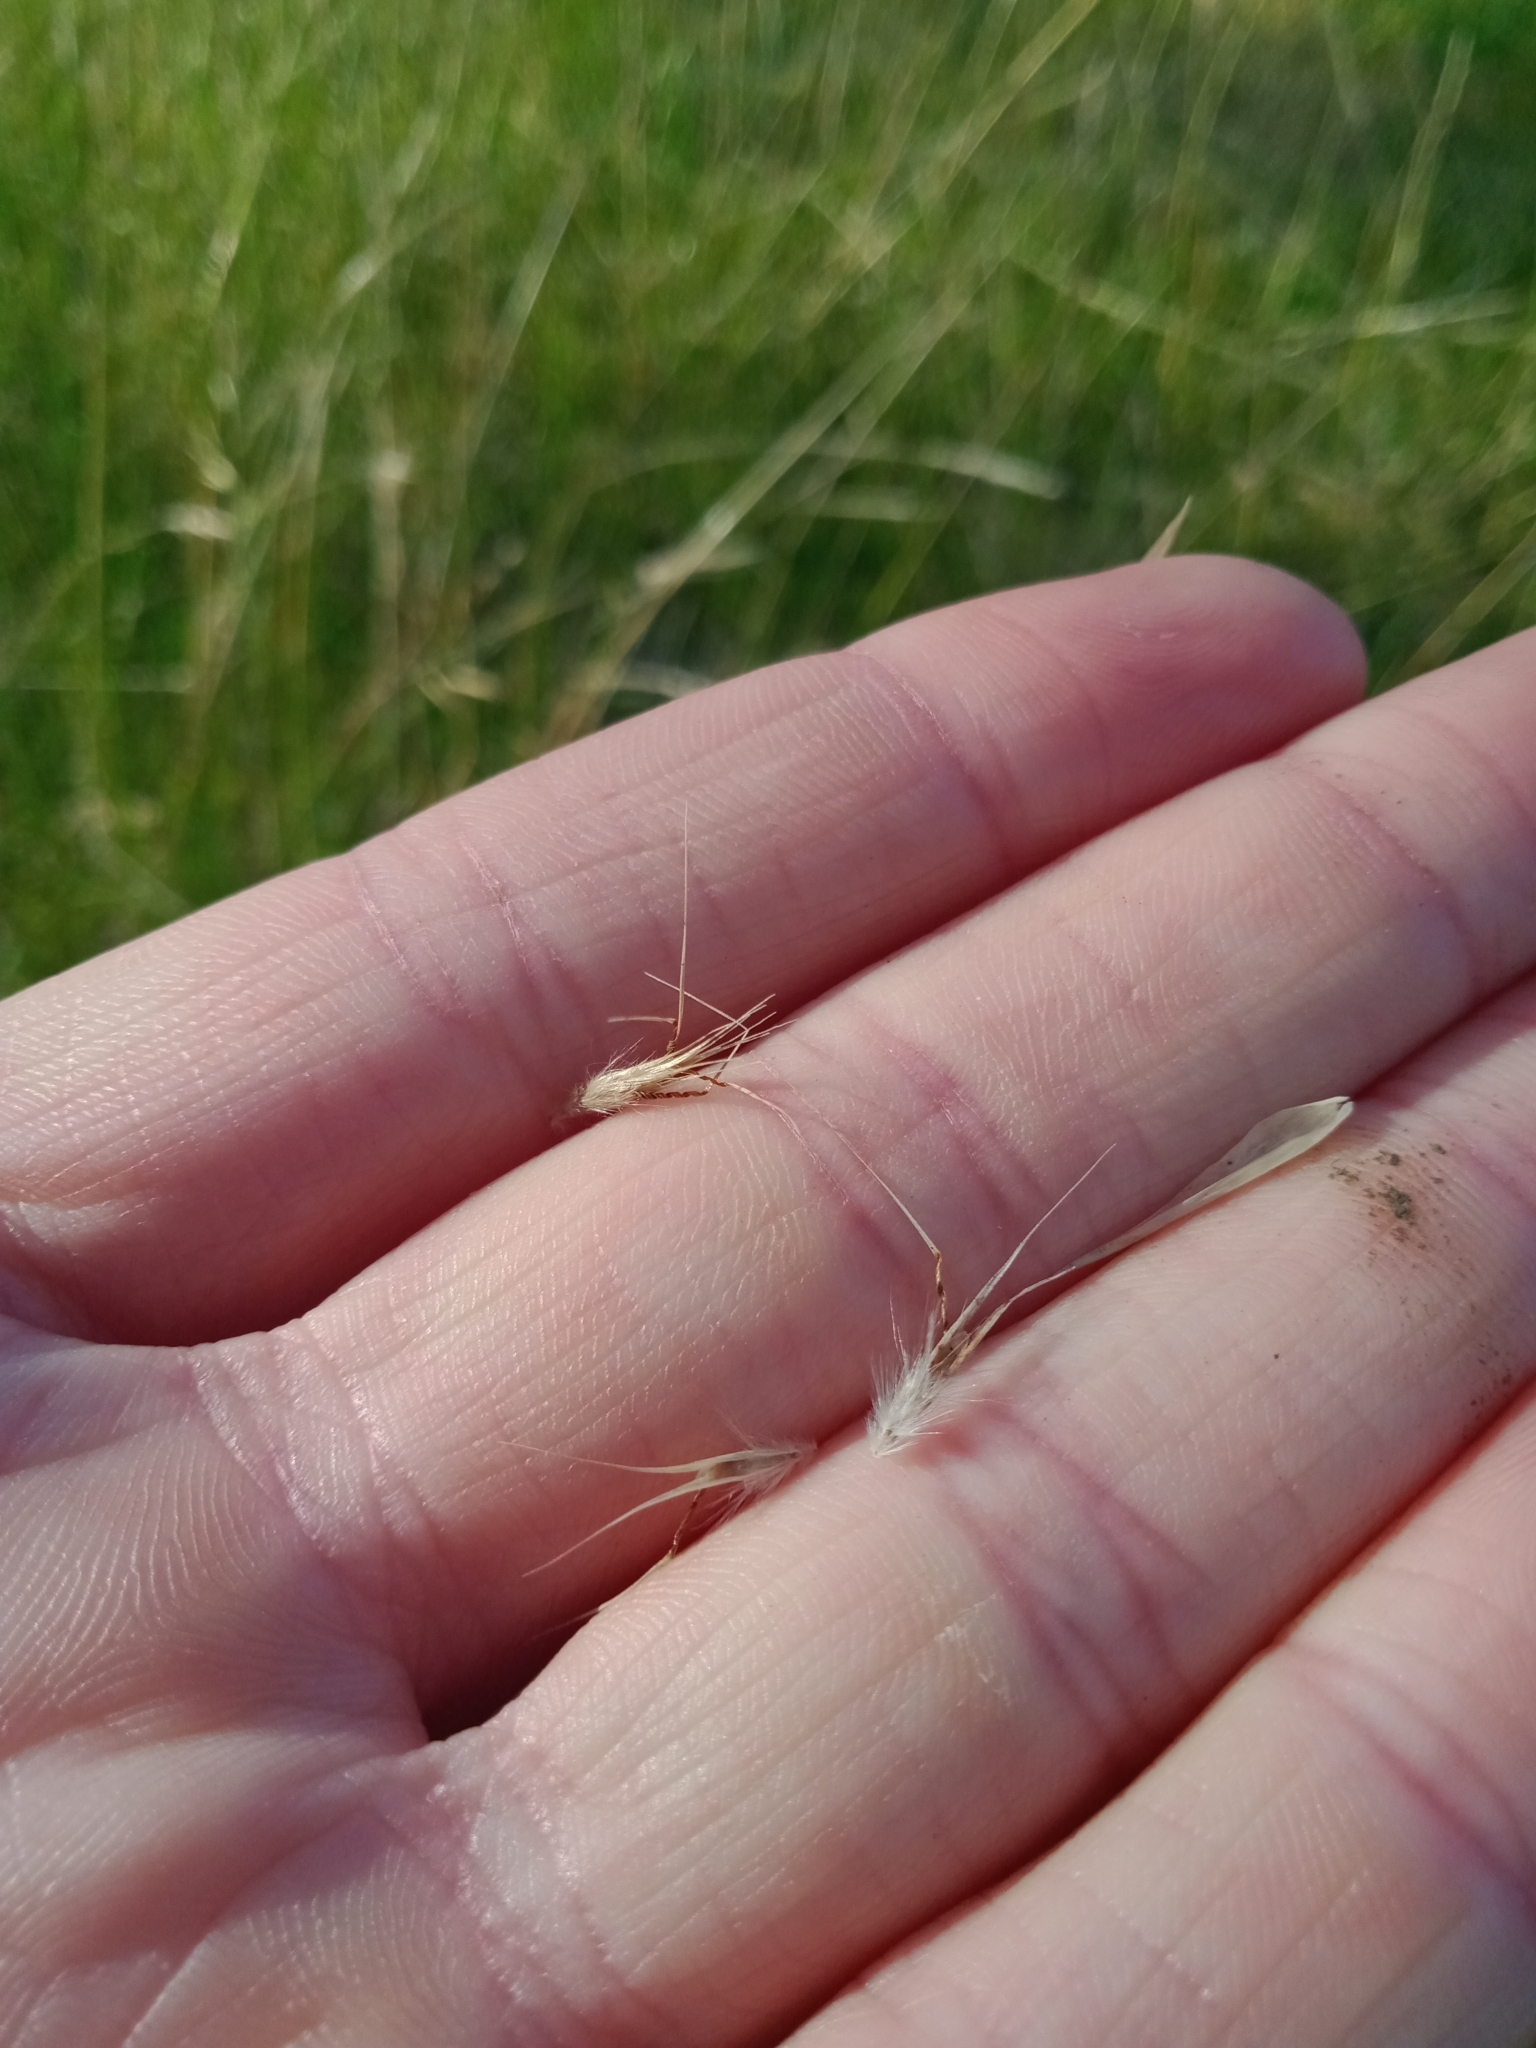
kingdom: Plantae
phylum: Tracheophyta
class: Liliopsida
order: Poales
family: Poaceae
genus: Rytidosperma
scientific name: Rytidosperma caespitosum
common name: Tufted wallaby grass
